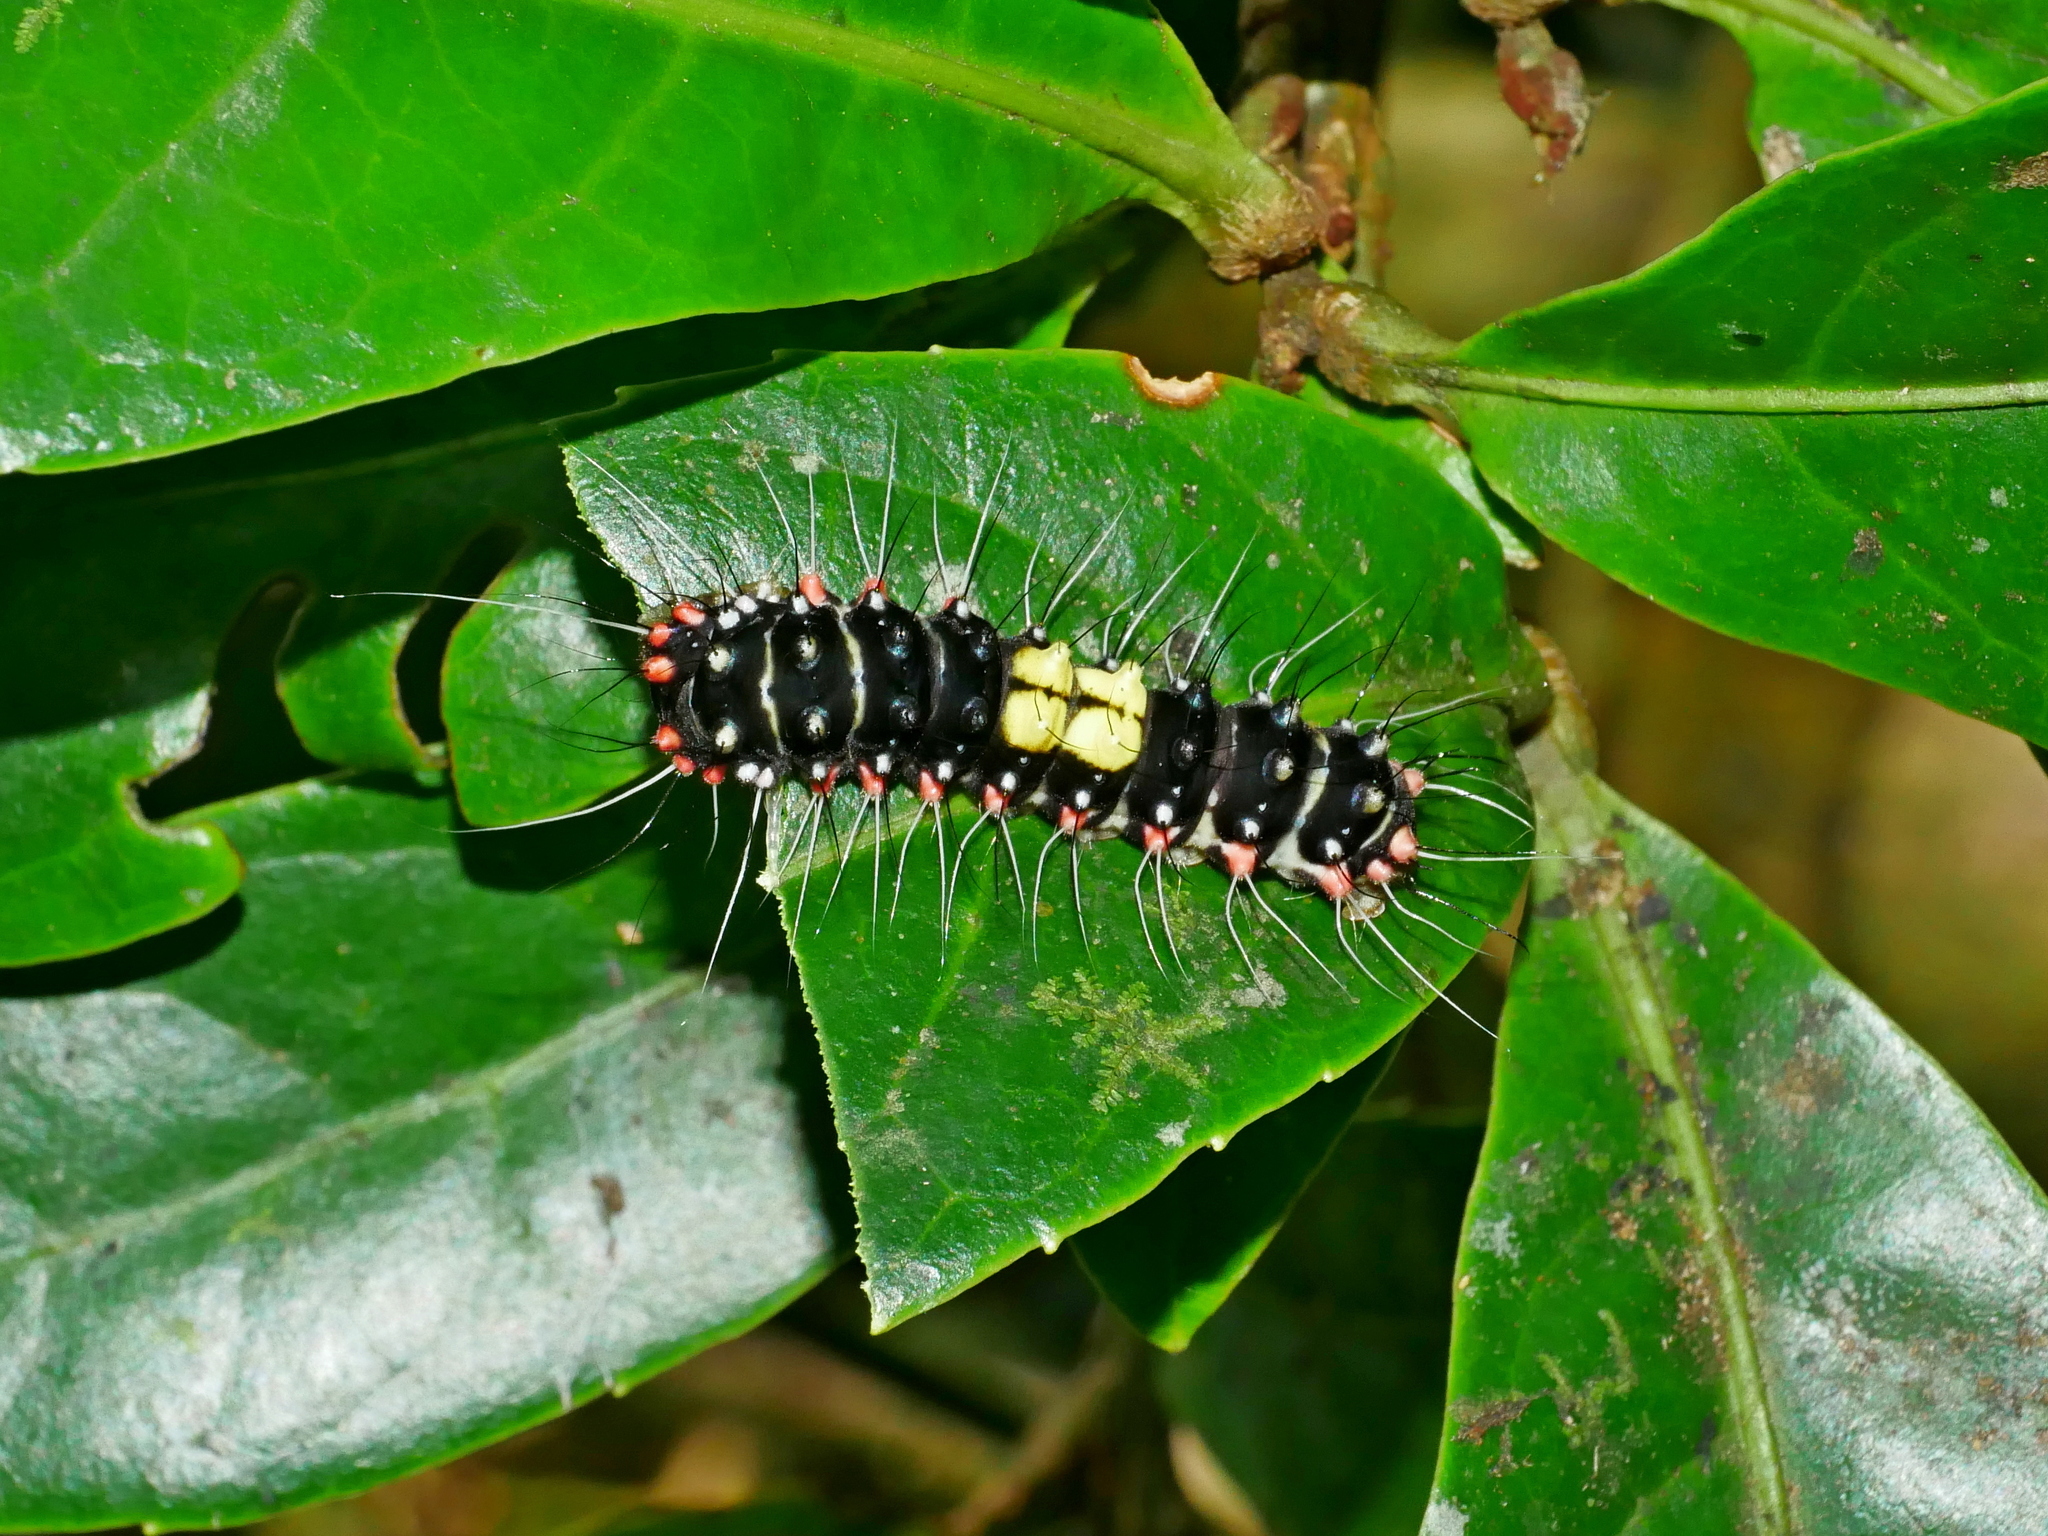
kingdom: Animalia
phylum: Arthropoda
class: Insecta
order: Lepidoptera
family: Zygaenidae
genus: Erasmia
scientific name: Erasmia pulchella
